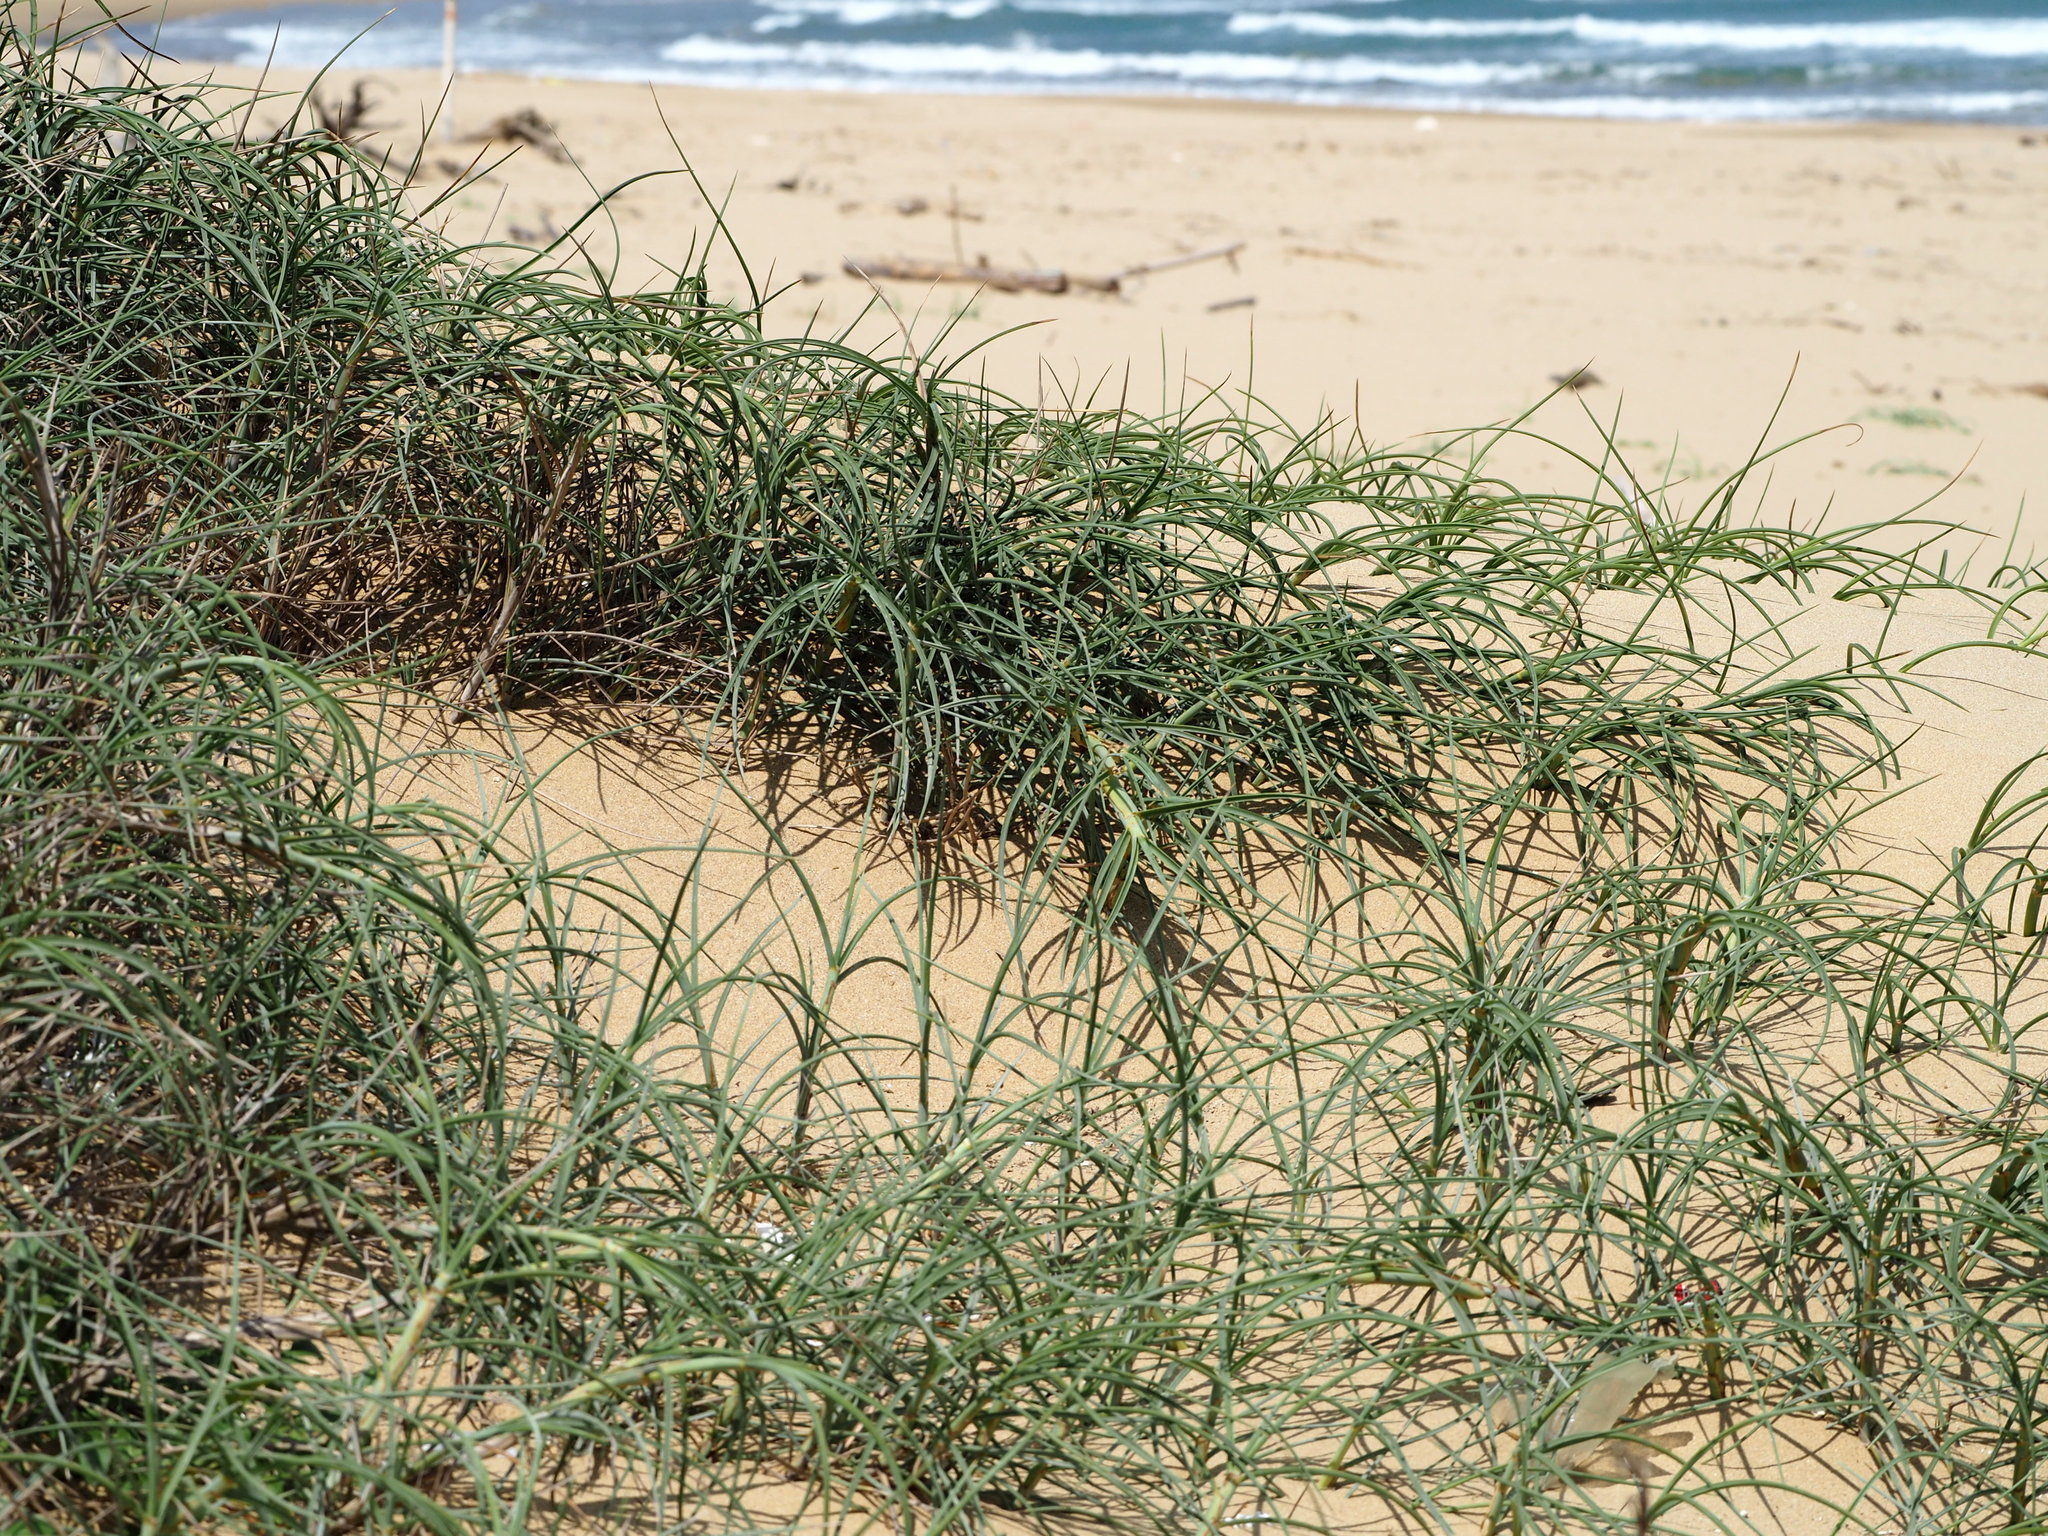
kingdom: Plantae
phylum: Tracheophyta
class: Liliopsida
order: Poales
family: Poaceae
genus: Spinifex
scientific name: Spinifex littoreus
